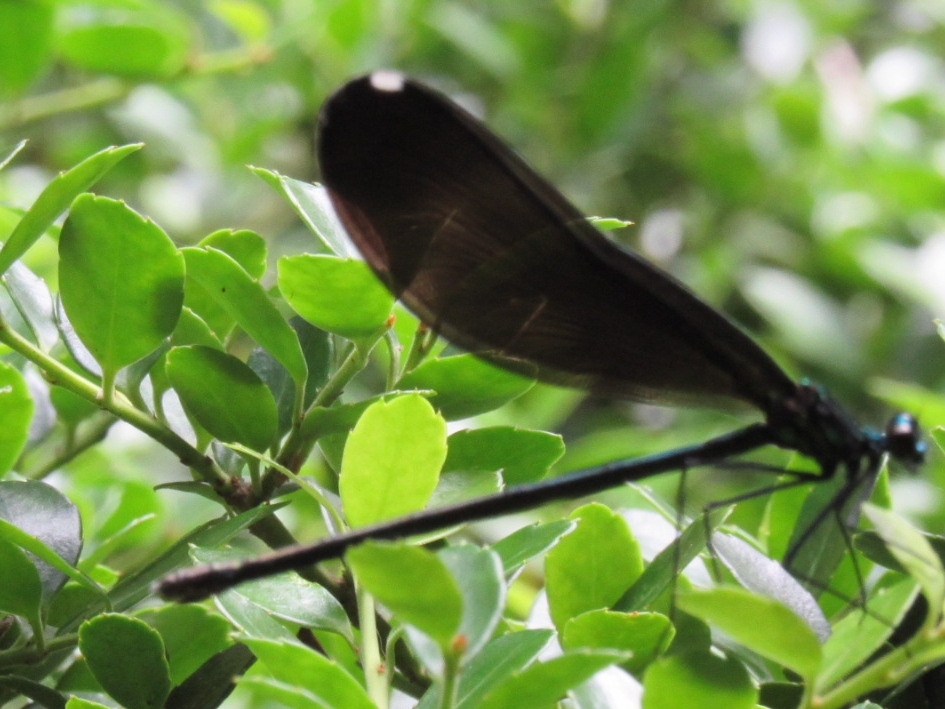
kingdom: Animalia
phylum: Arthropoda
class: Insecta
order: Odonata
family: Calopterygidae
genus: Calopteryx
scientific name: Calopteryx maculata
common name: Ebony jewelwing
